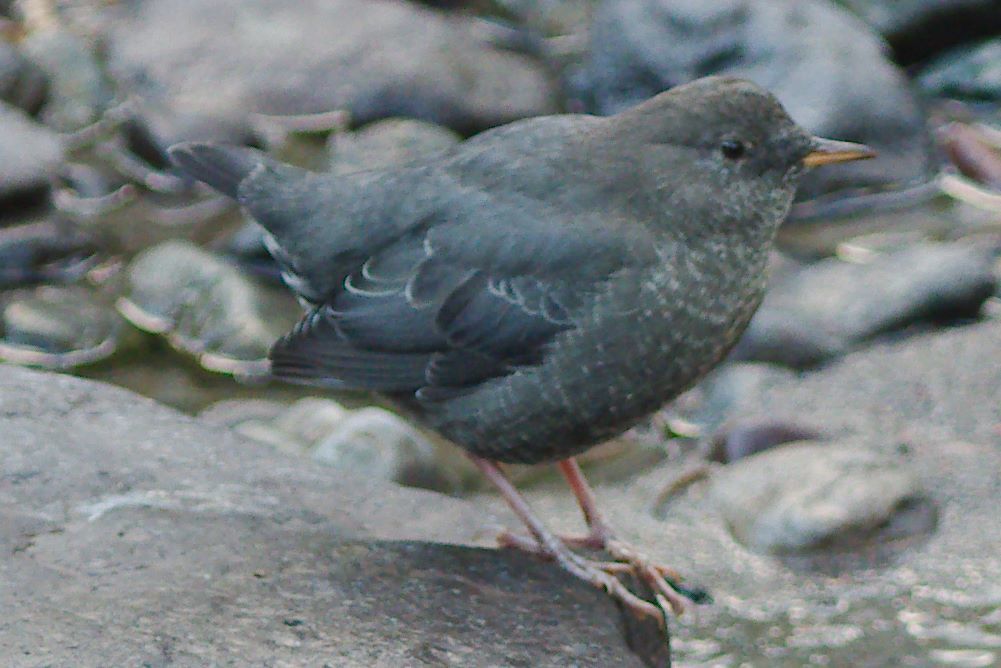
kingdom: Animalia
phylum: Chordata
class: Aves
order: Passeriformes
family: Cinclidae
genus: Cinclus
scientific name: Cinclus mexicanus
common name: American dipper
